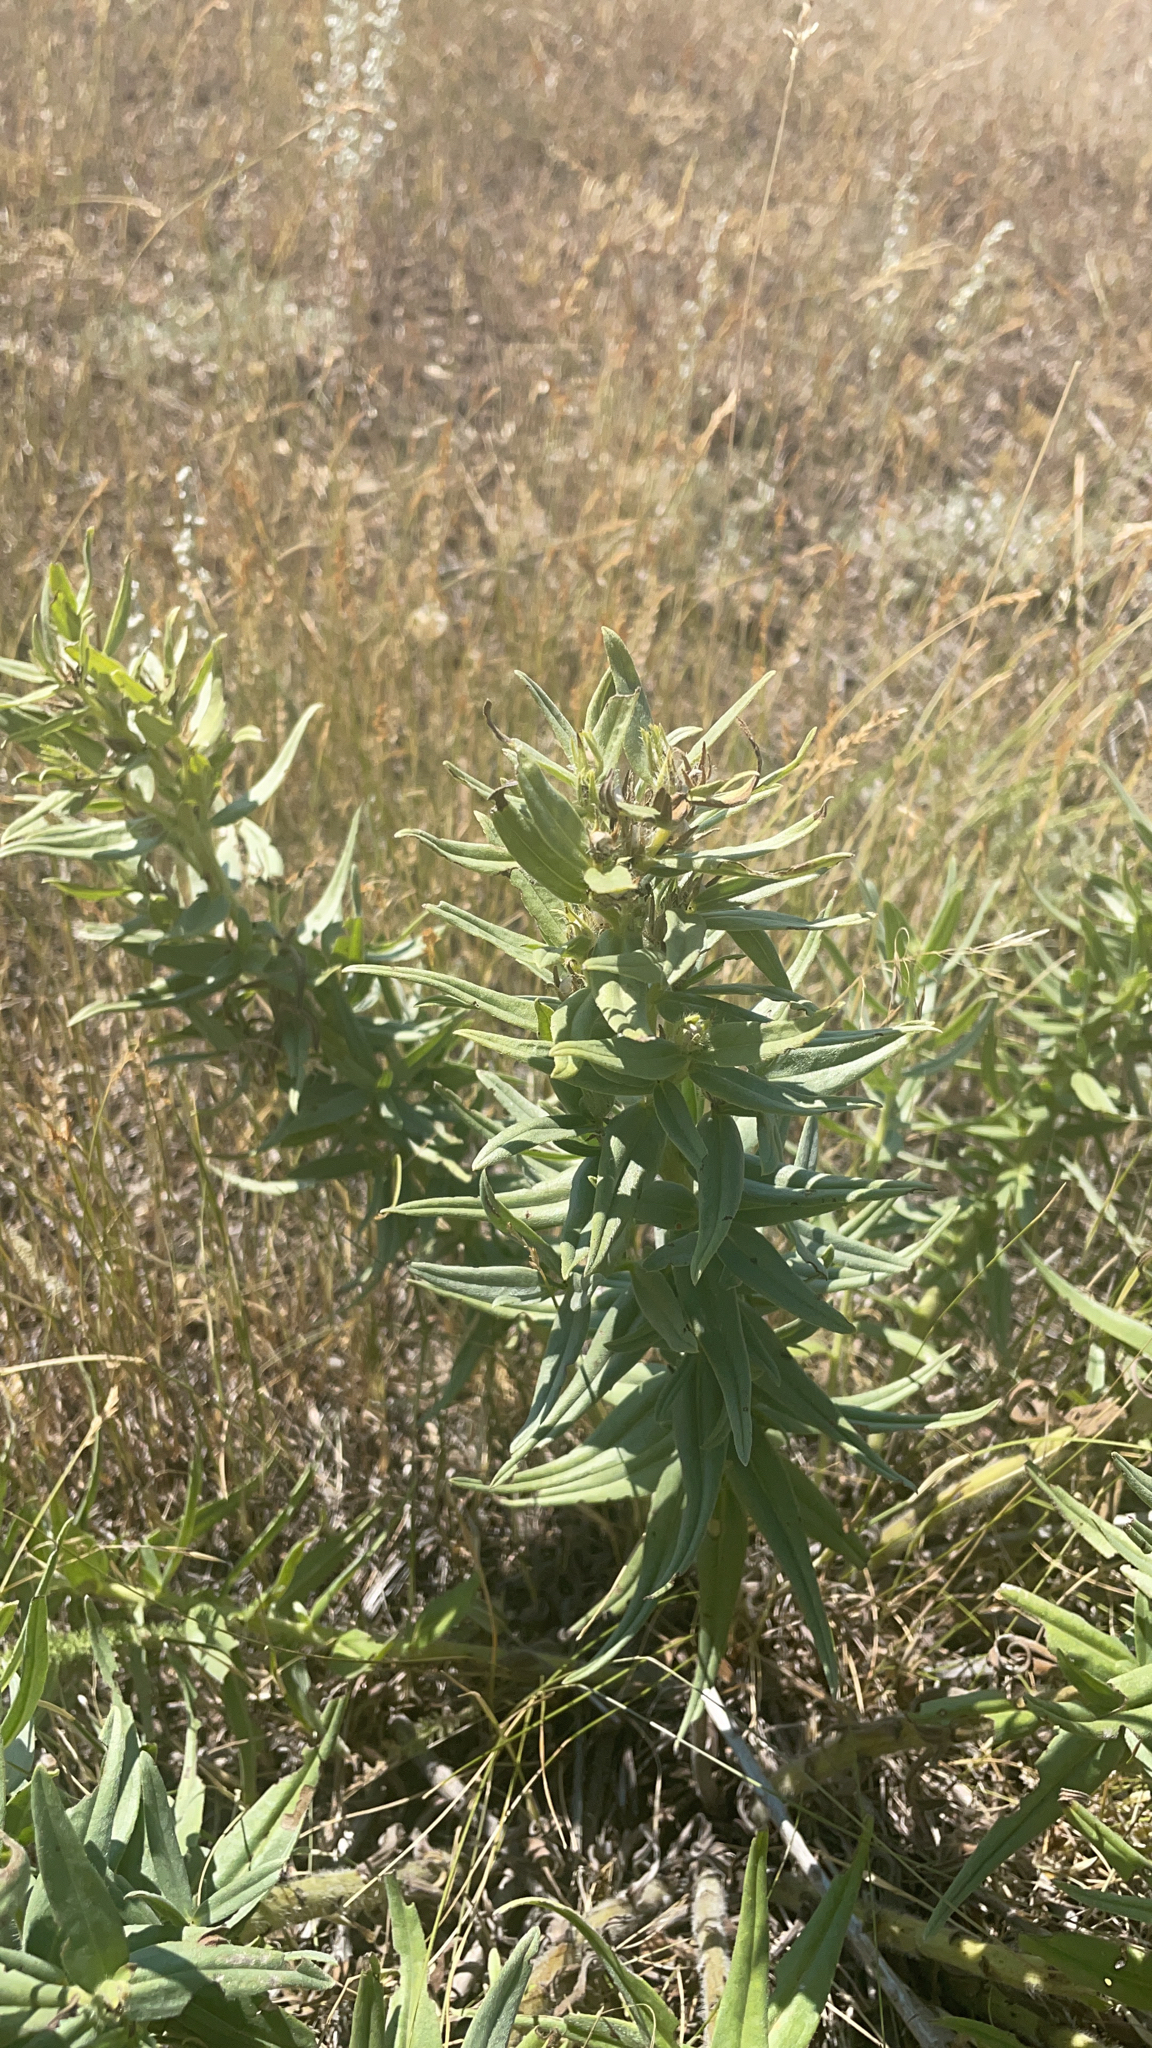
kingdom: Plantae
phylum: Tracheophyta
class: Magnoliopsida
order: Boraginales
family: Boraginaceae
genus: Lithospermum
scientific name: Lithospermum ruderale
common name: Western gromwell
